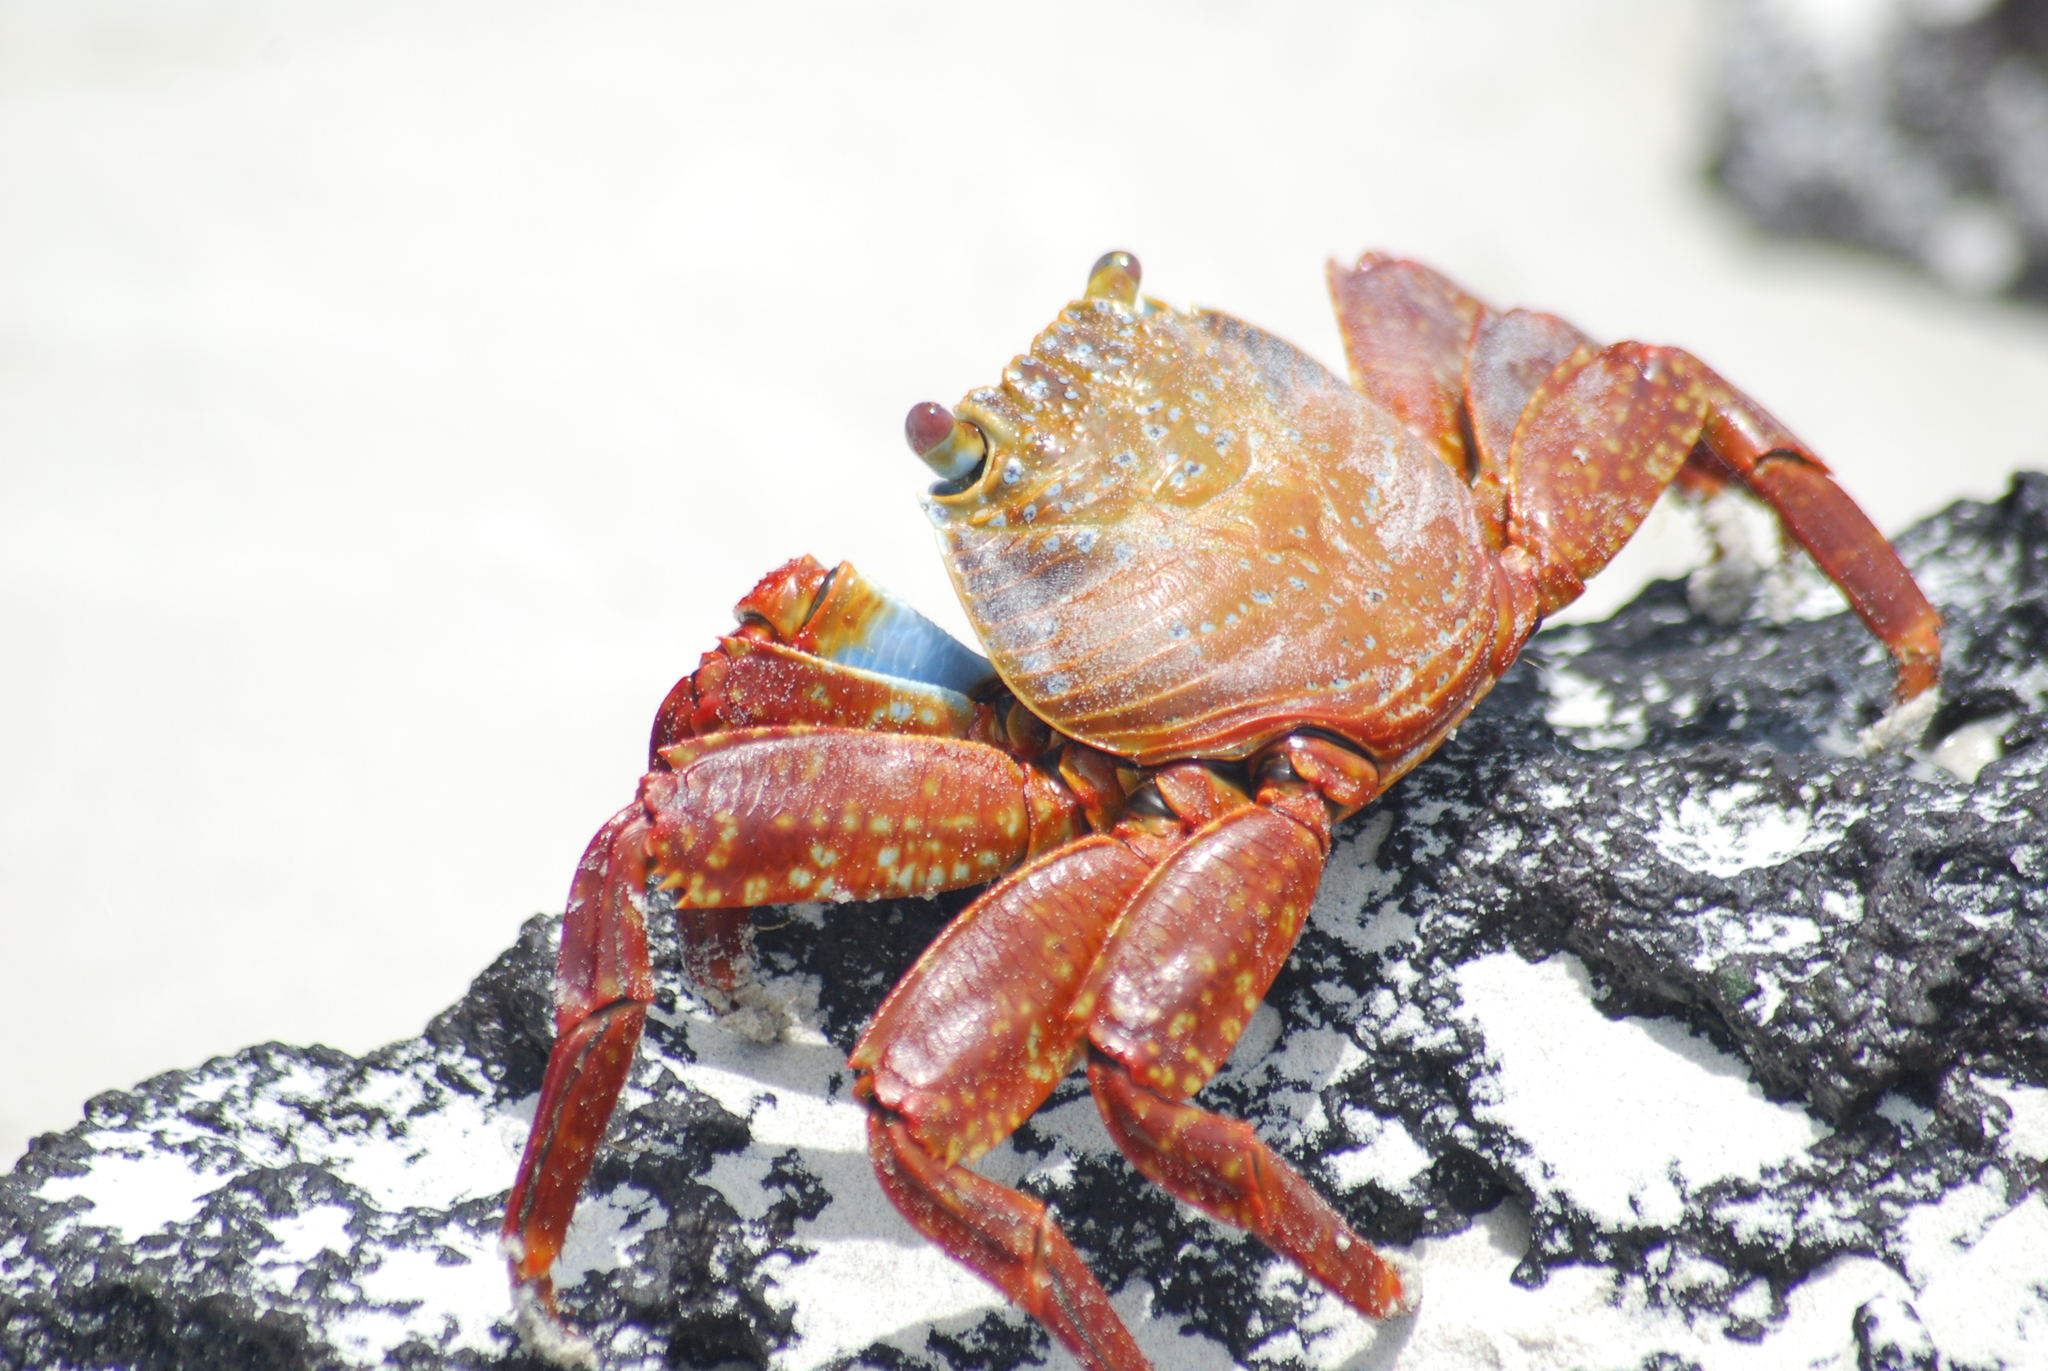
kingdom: Animalia
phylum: Arthropoda
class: Malacostraca
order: Decapoda
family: Grapsidae
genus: Grapsus
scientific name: Grapsus grapsus
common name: Sally lightfoot
